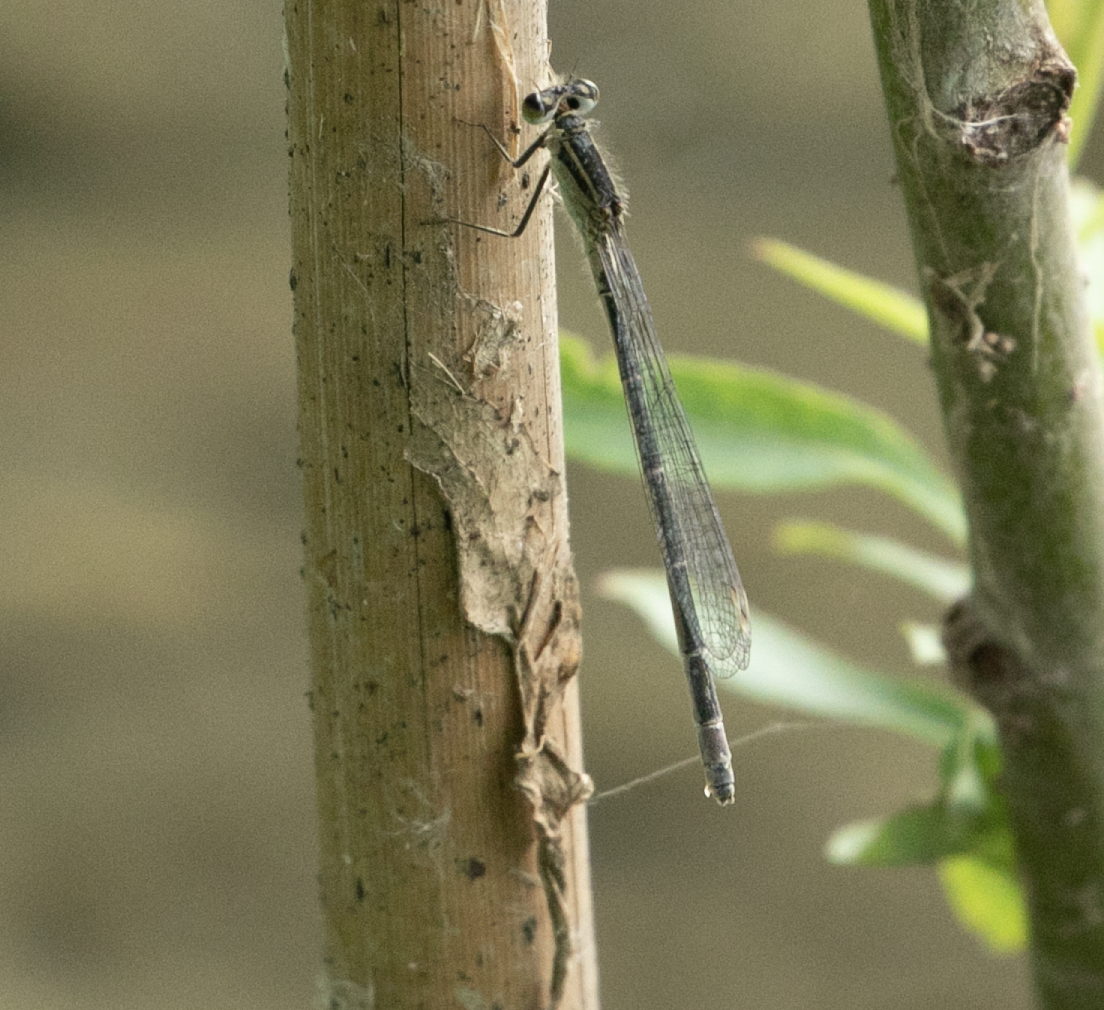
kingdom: Animalia
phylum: Arthropoda
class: Insecta
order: Odonata
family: Coenagrionidae
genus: Ischnura
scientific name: Ischnura elegans
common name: Blue-tailed damselfly
